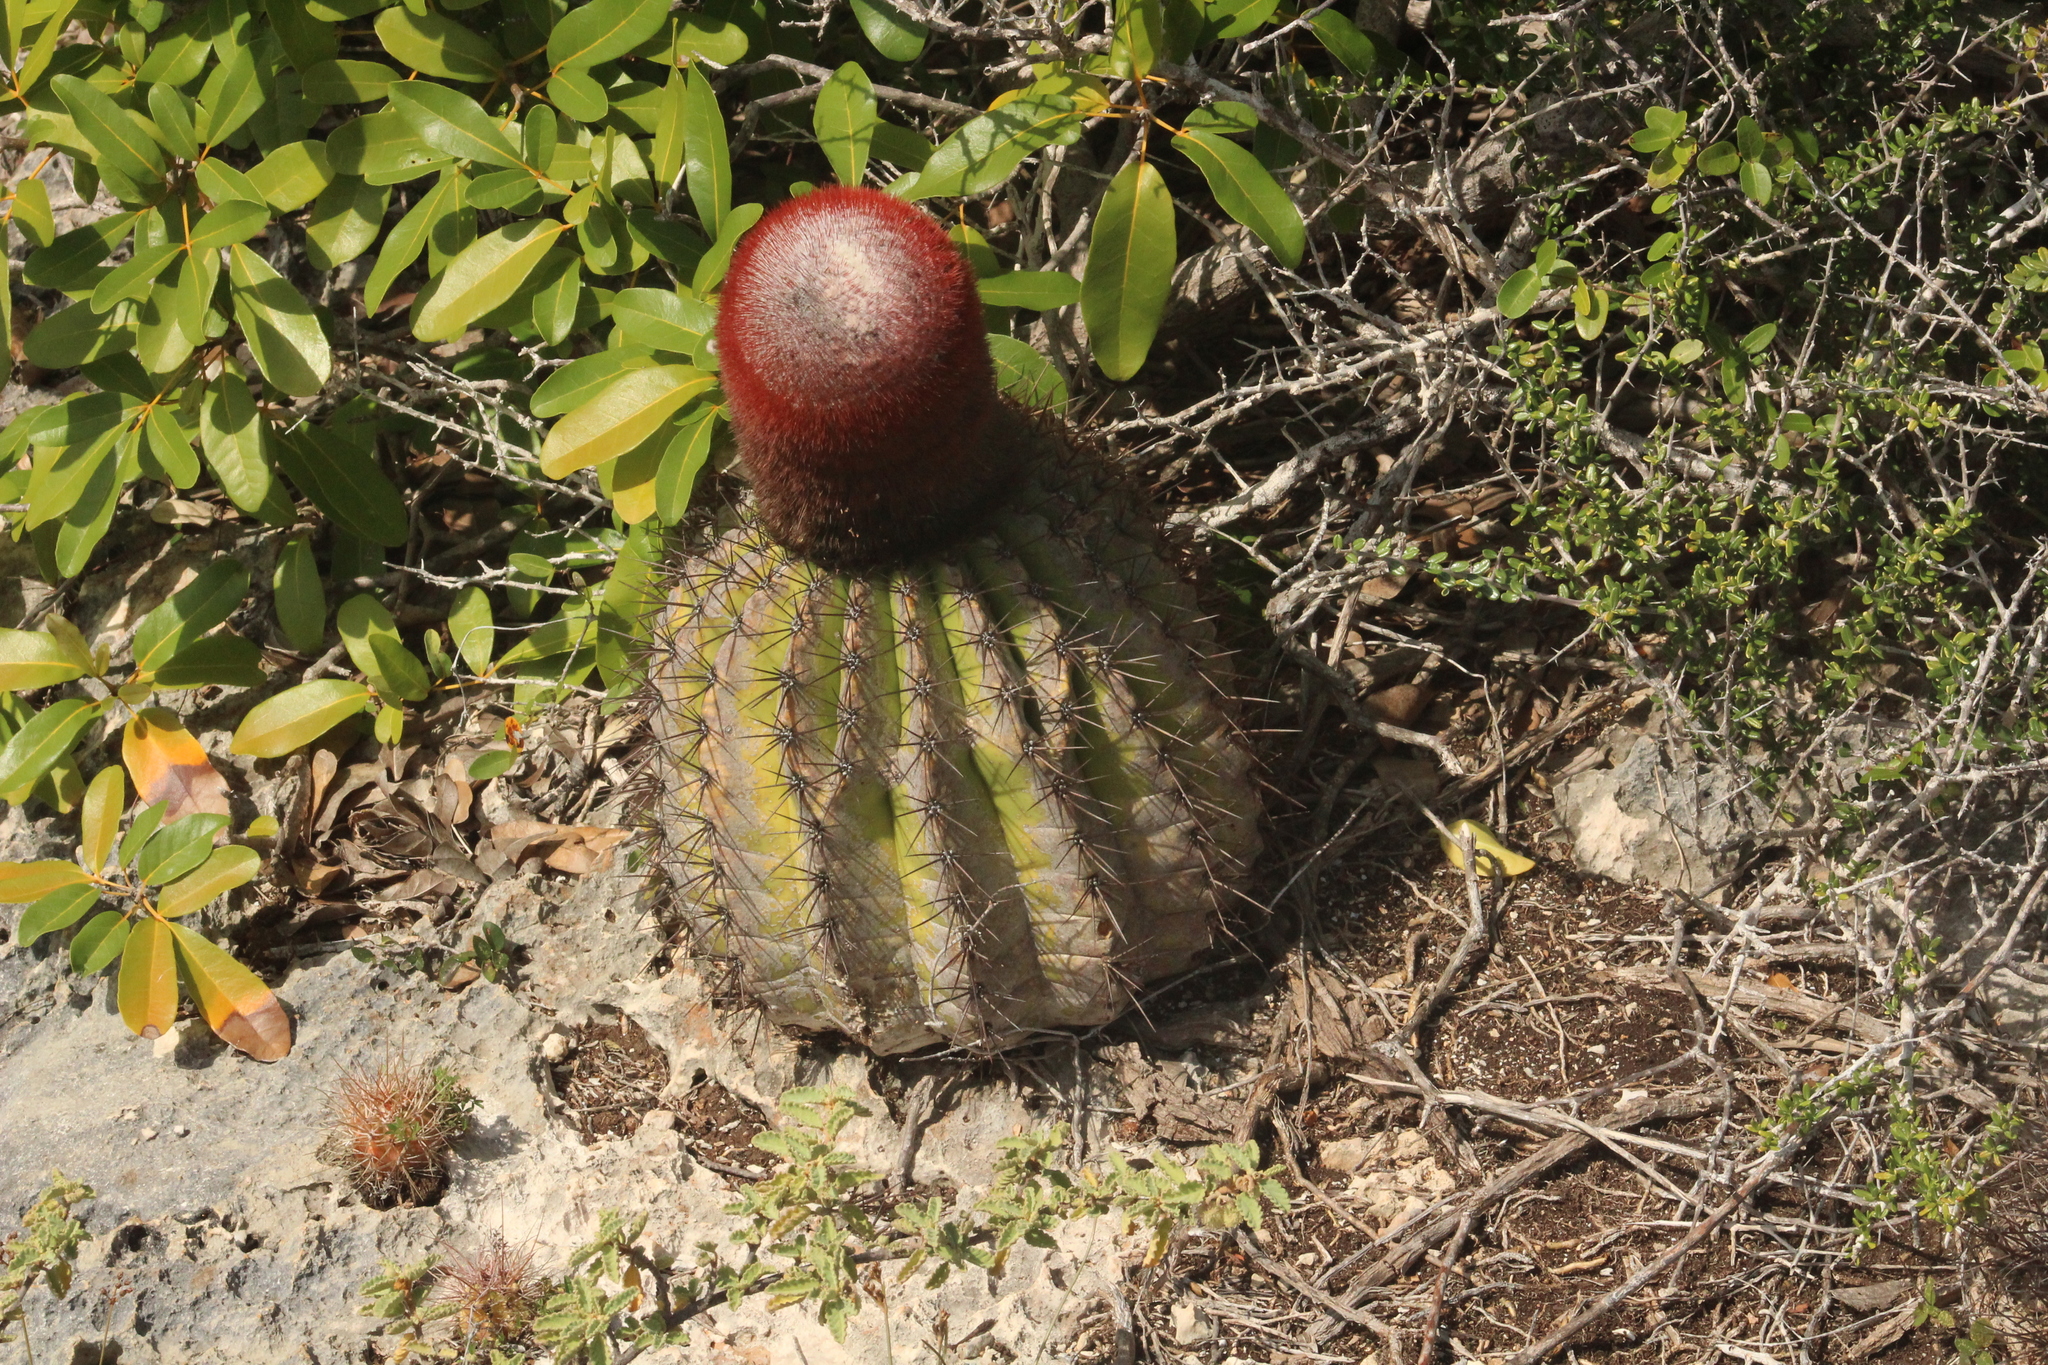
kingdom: Plantae
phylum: Tracheophyta
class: Magnoliopsida
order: Caryophyllales
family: Cactaceae
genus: Melocactus
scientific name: Melocactus intortus
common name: Barrel cactus
